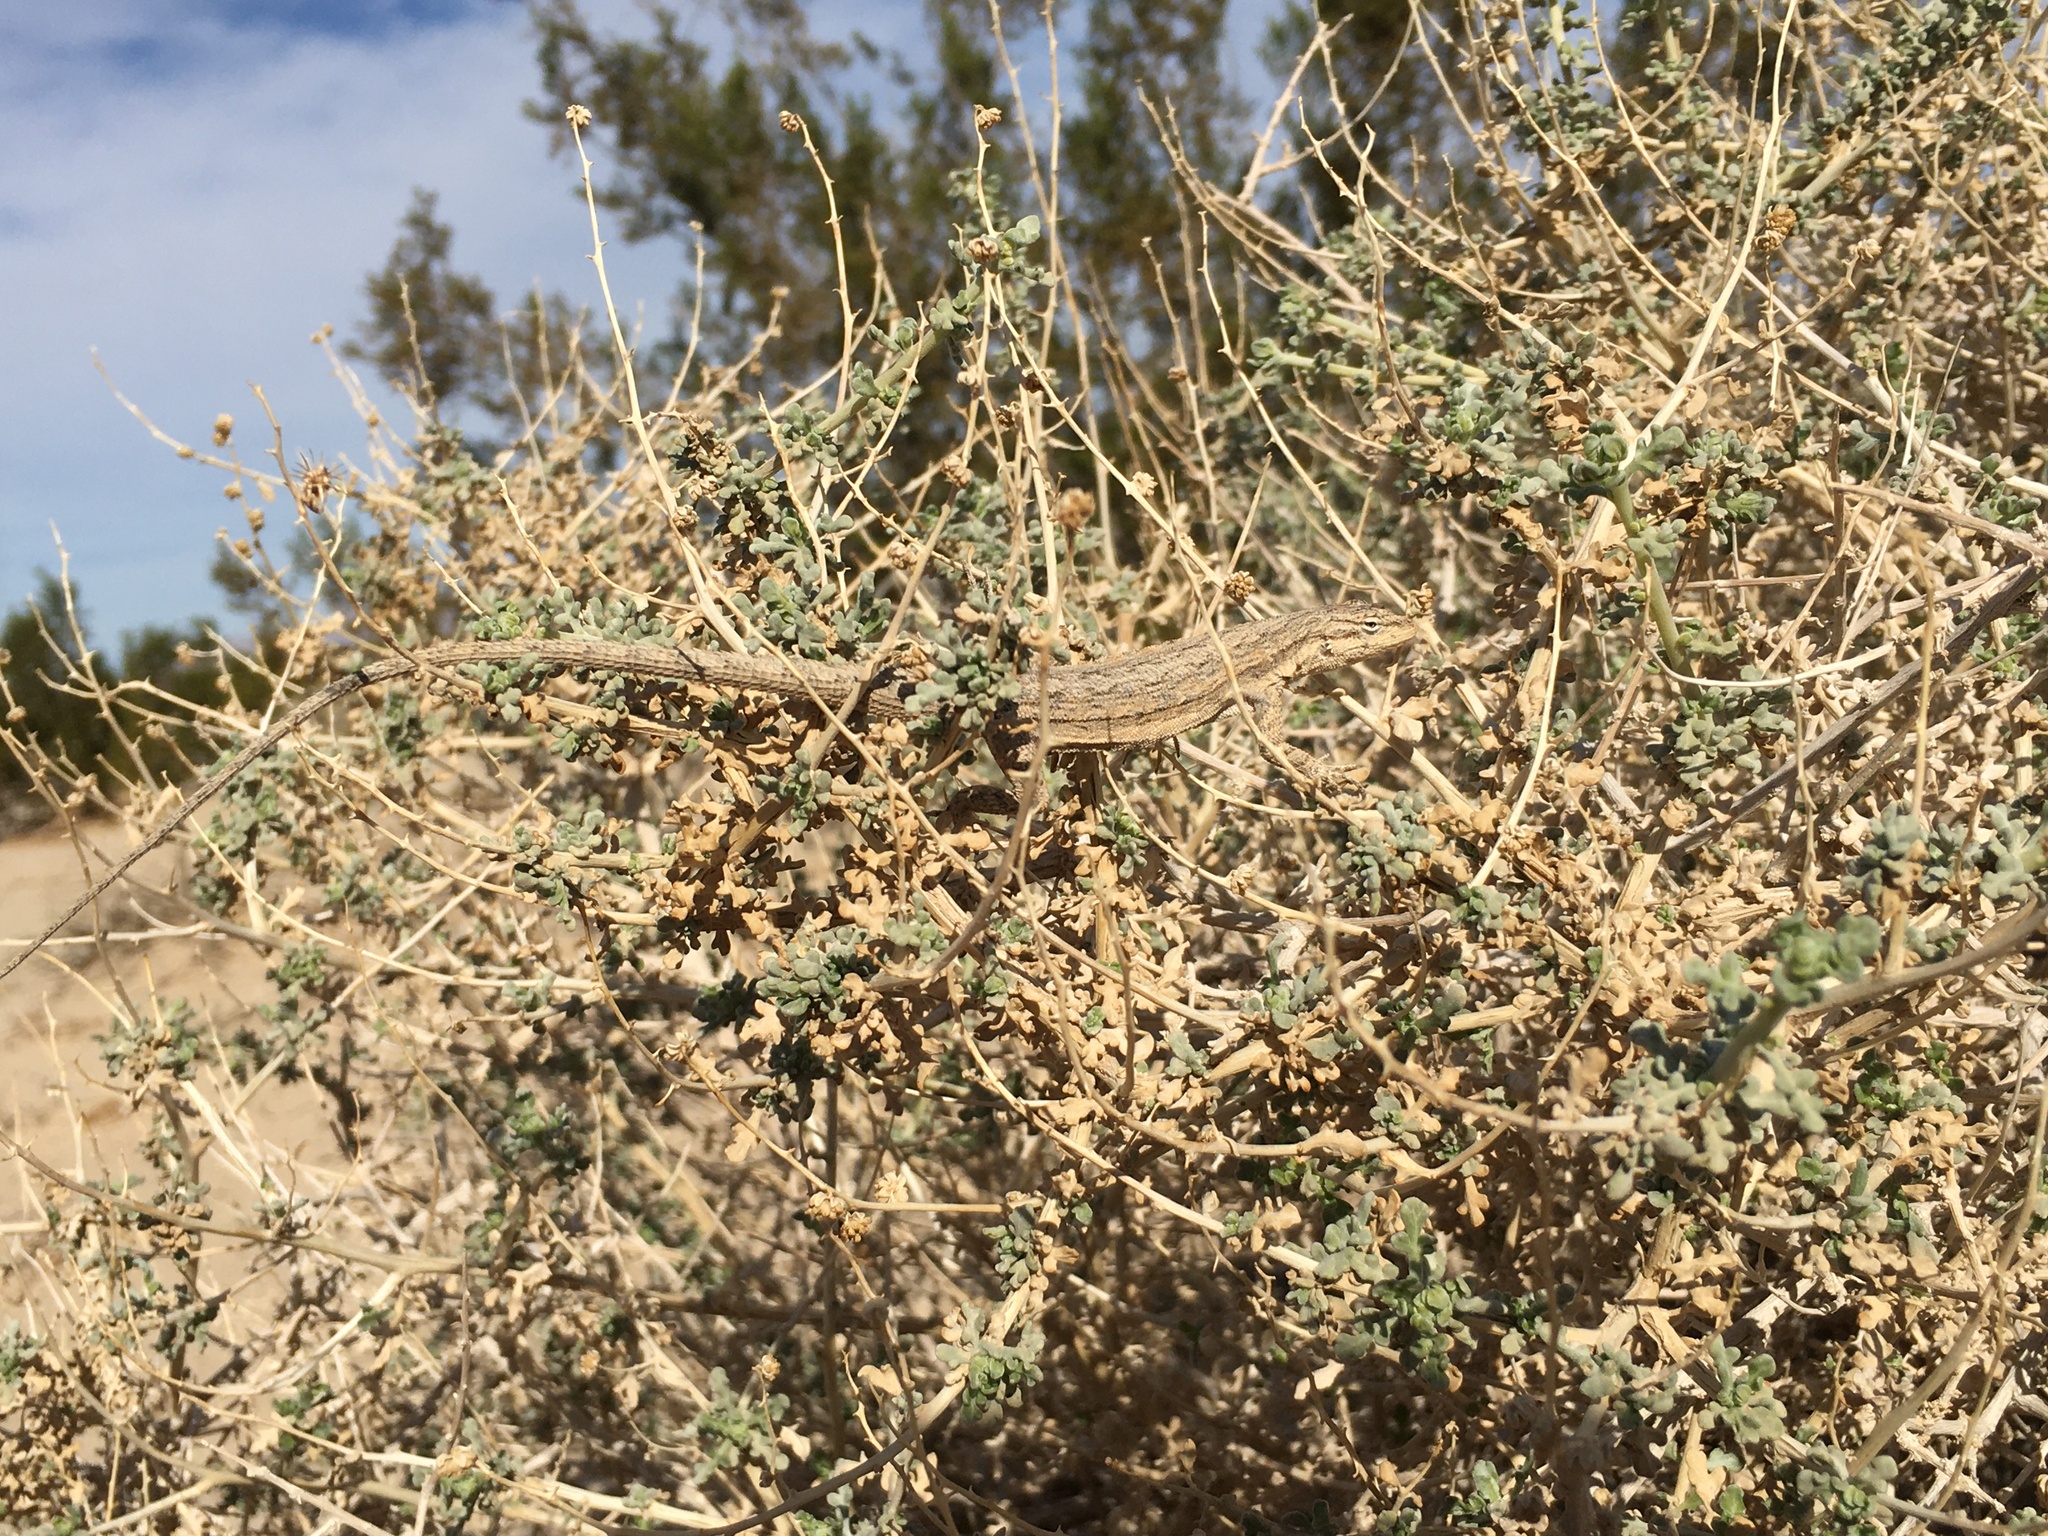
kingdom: Animalia
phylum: Chordata
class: Squamata
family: Phrynosomatidae
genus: Urosaurus
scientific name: Urosaurus graciosus
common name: Long-tailed brush lizard
